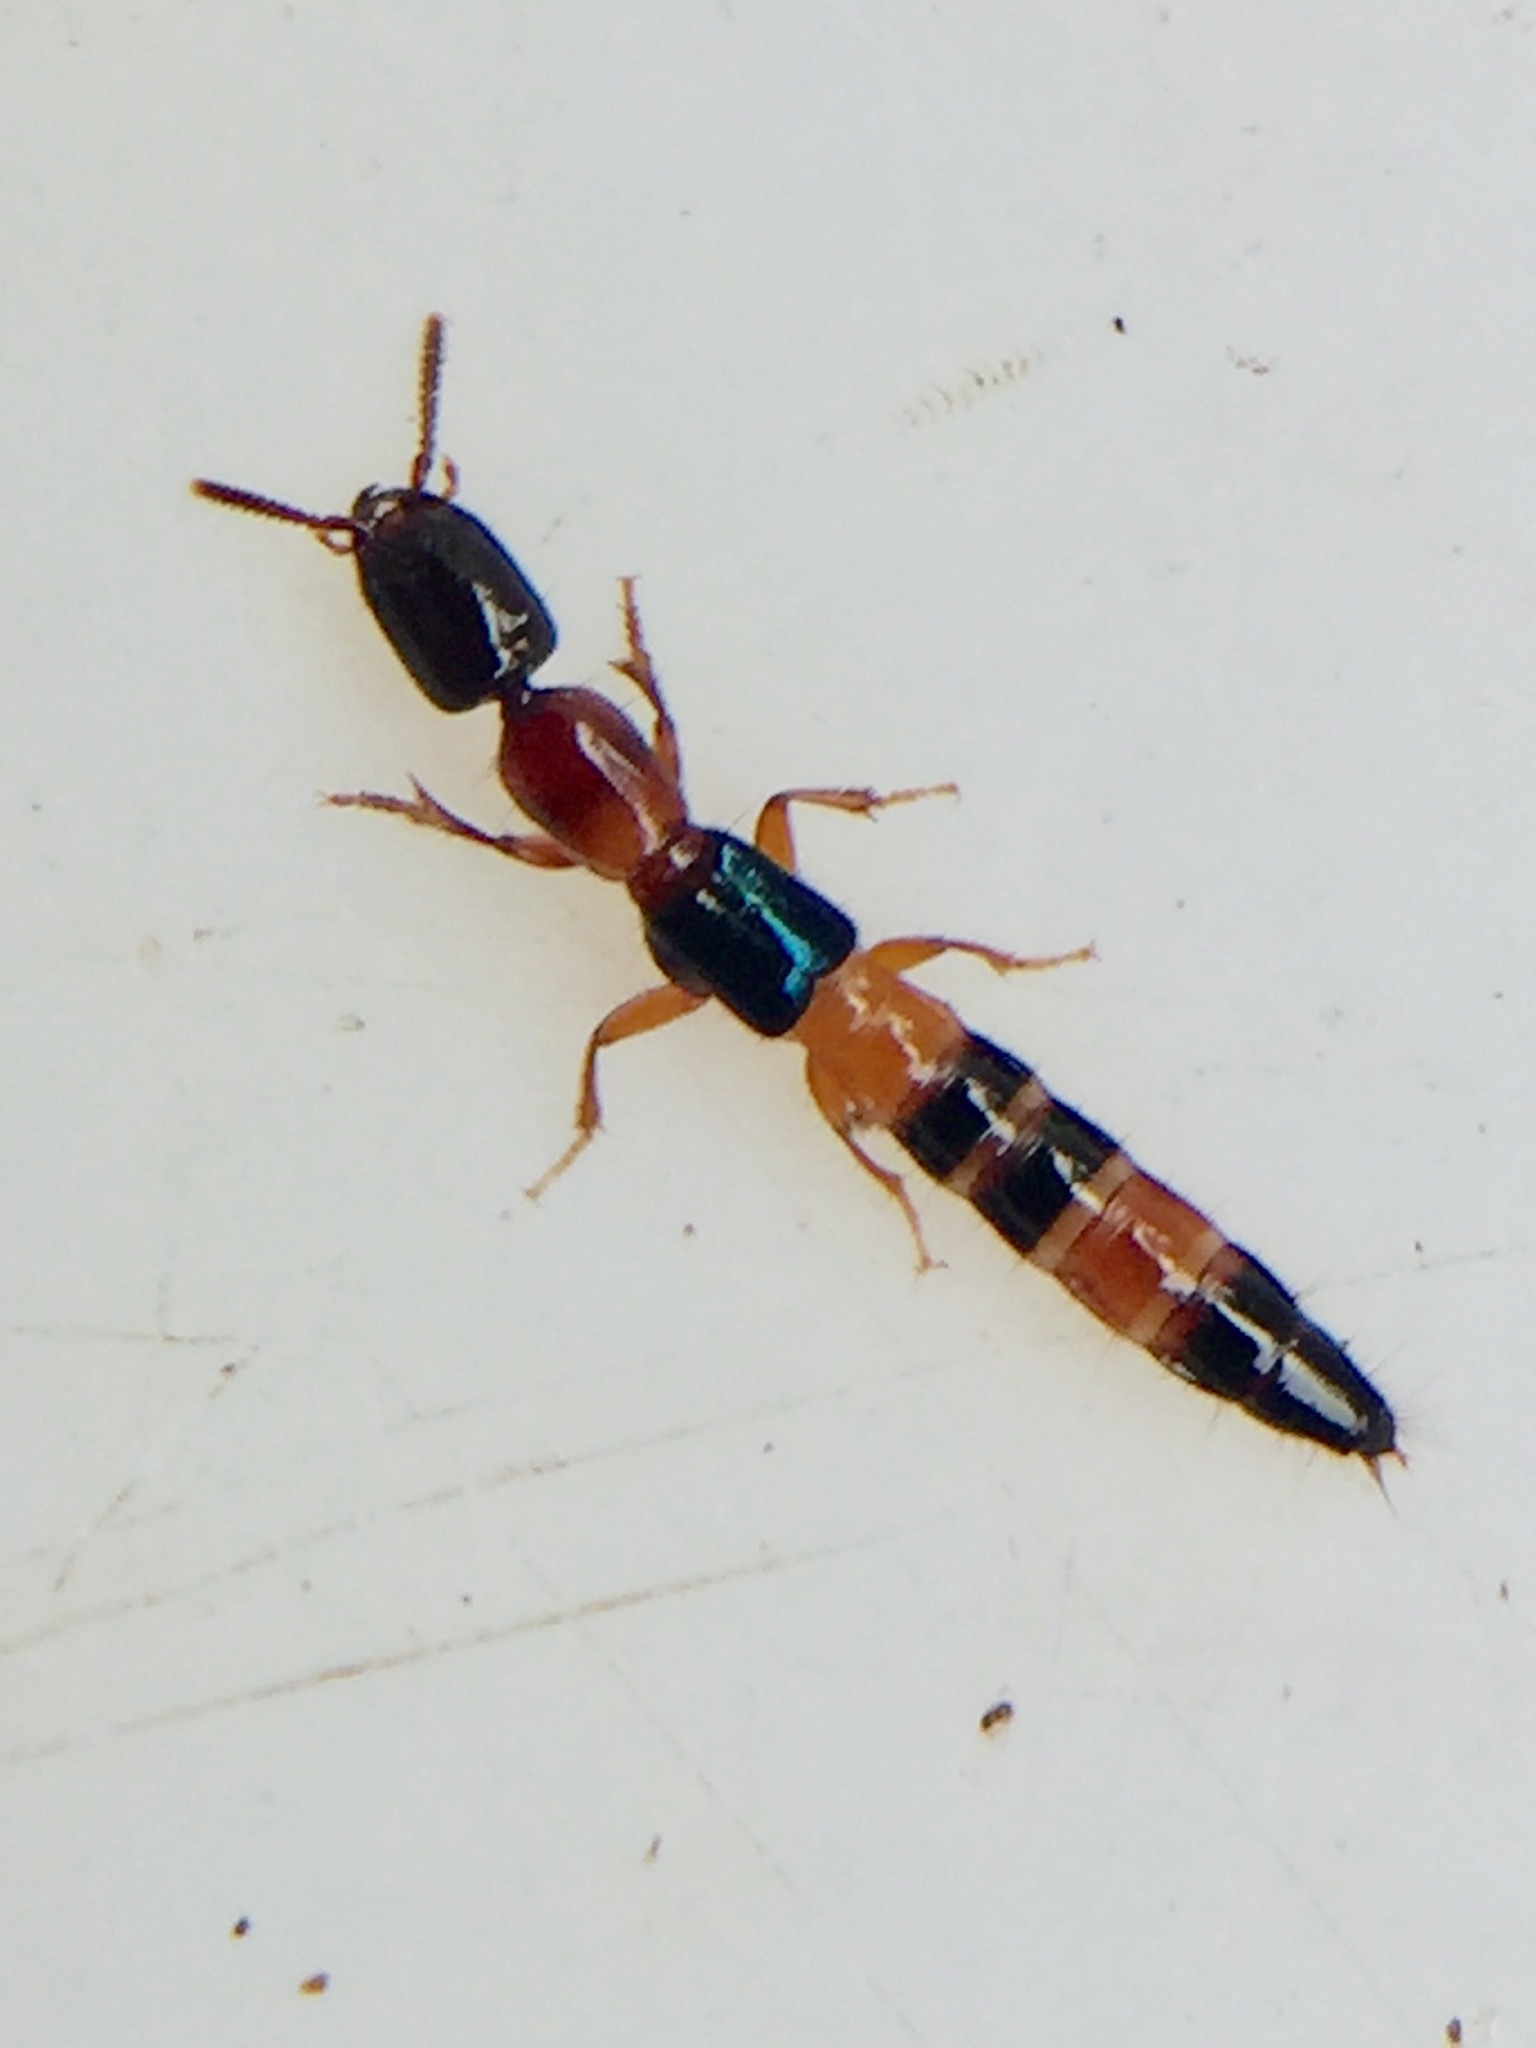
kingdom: Animalia
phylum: Arthropoda
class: Insecta
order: Coleoptera
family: Staphylinidae
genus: Australinus
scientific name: Australinus cyaneipennis
